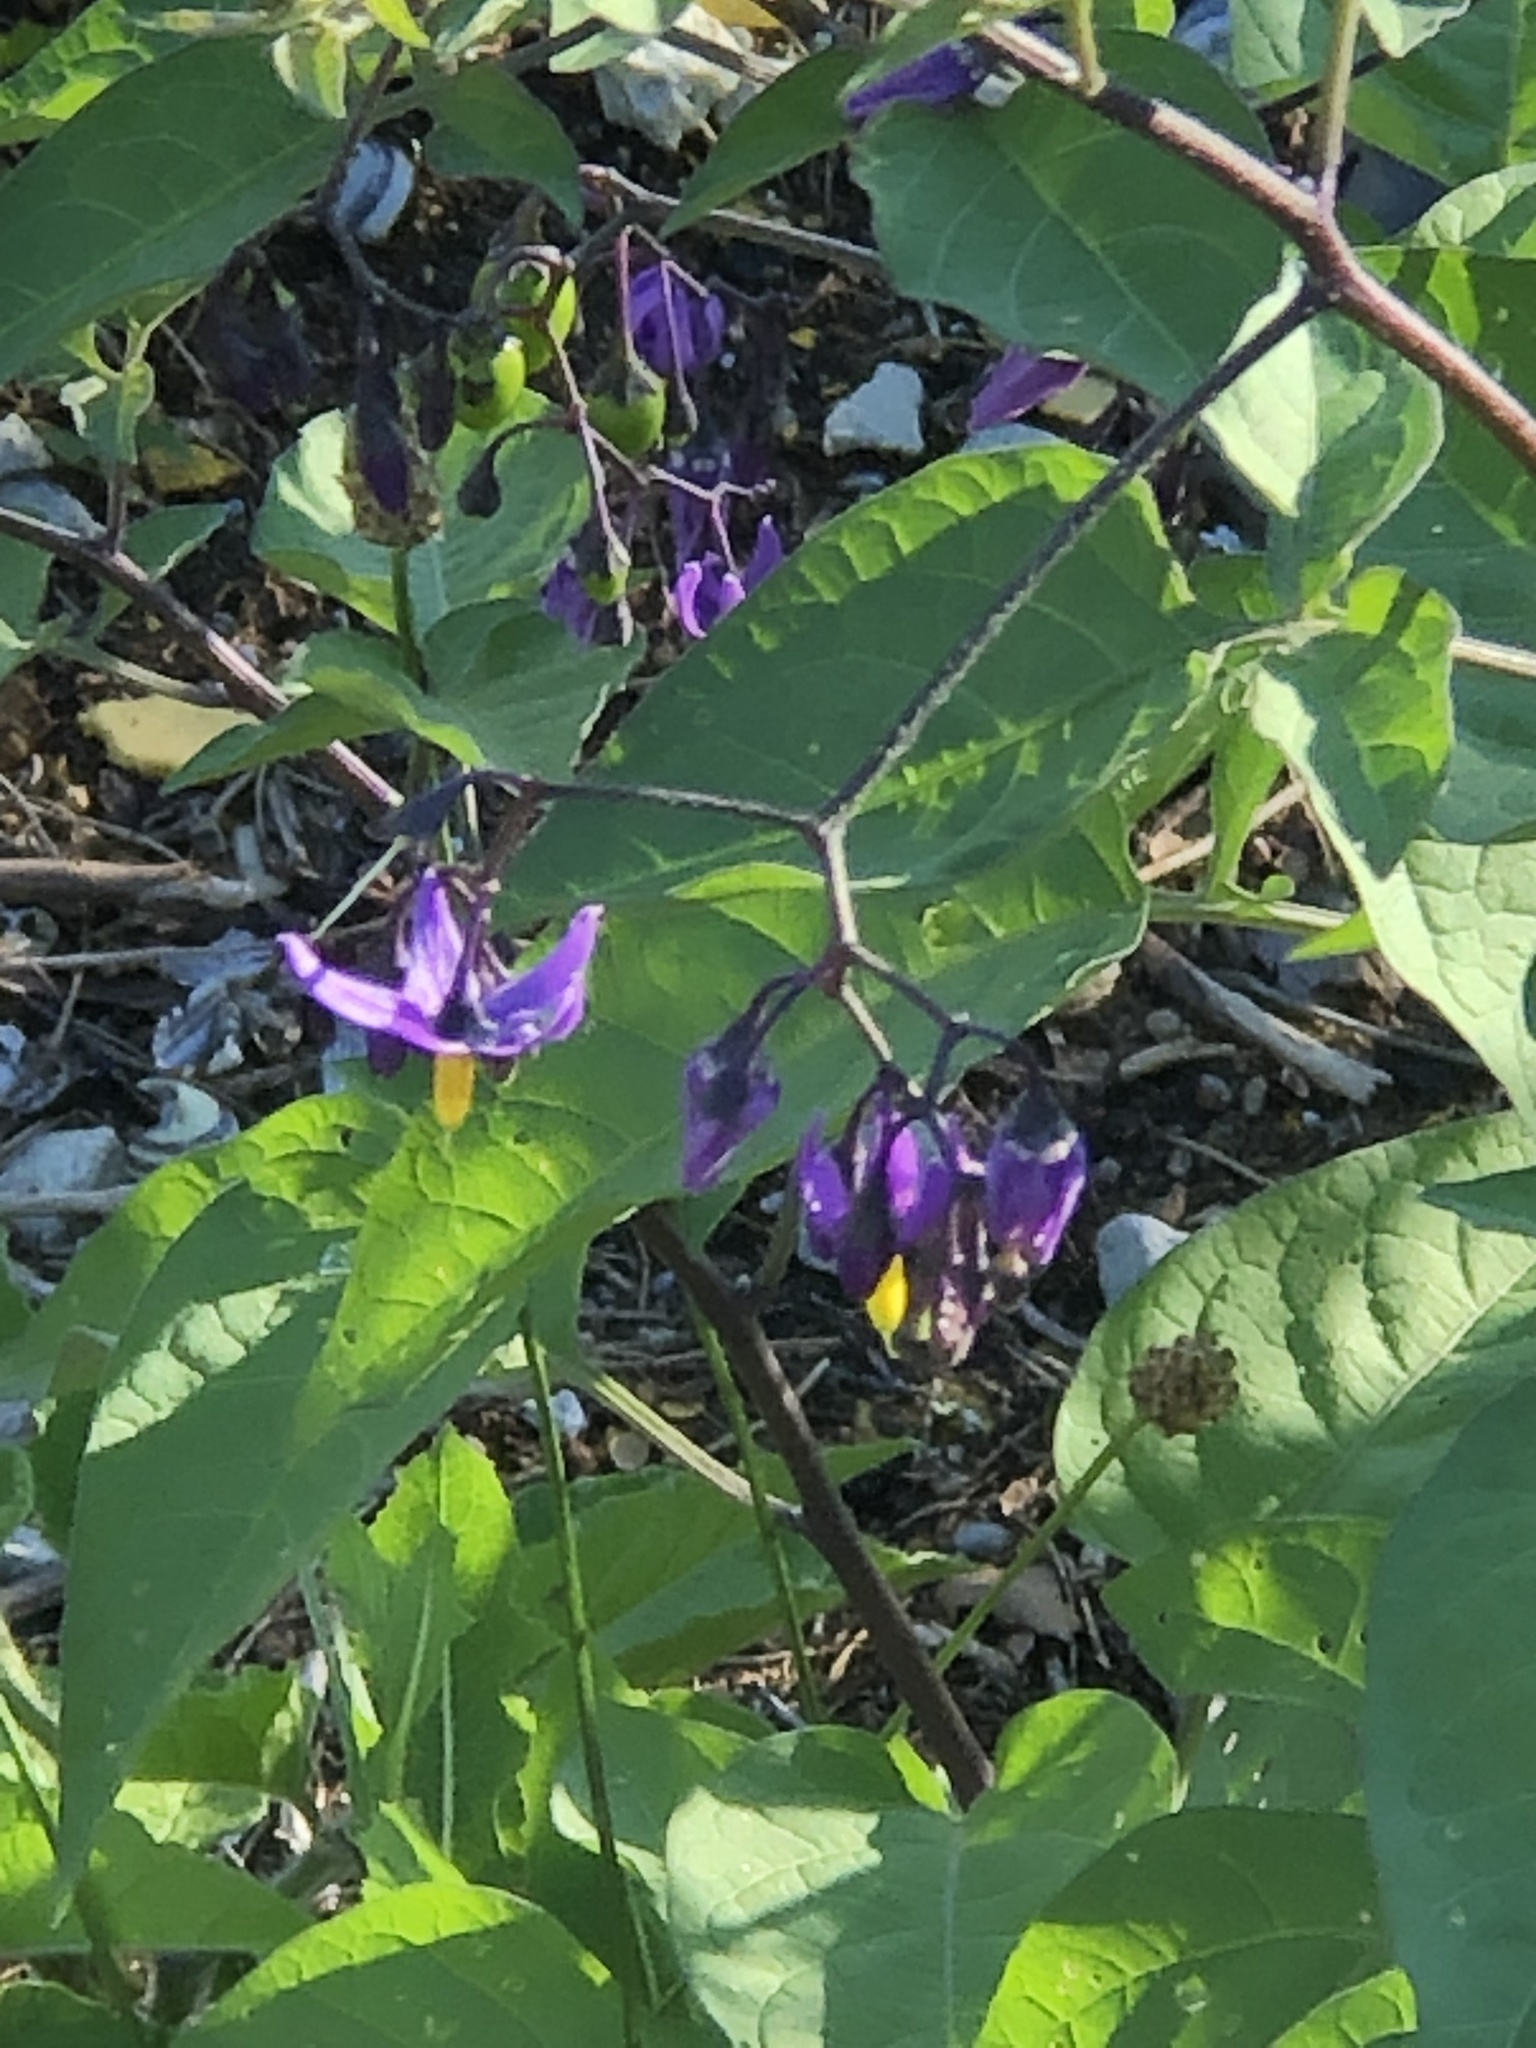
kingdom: Plantae
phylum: Tracheophyta
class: Magnoliopsida
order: Solanales
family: Solanaceae
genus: Solanum
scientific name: Solanum dulcamara
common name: Climbing nightshade
